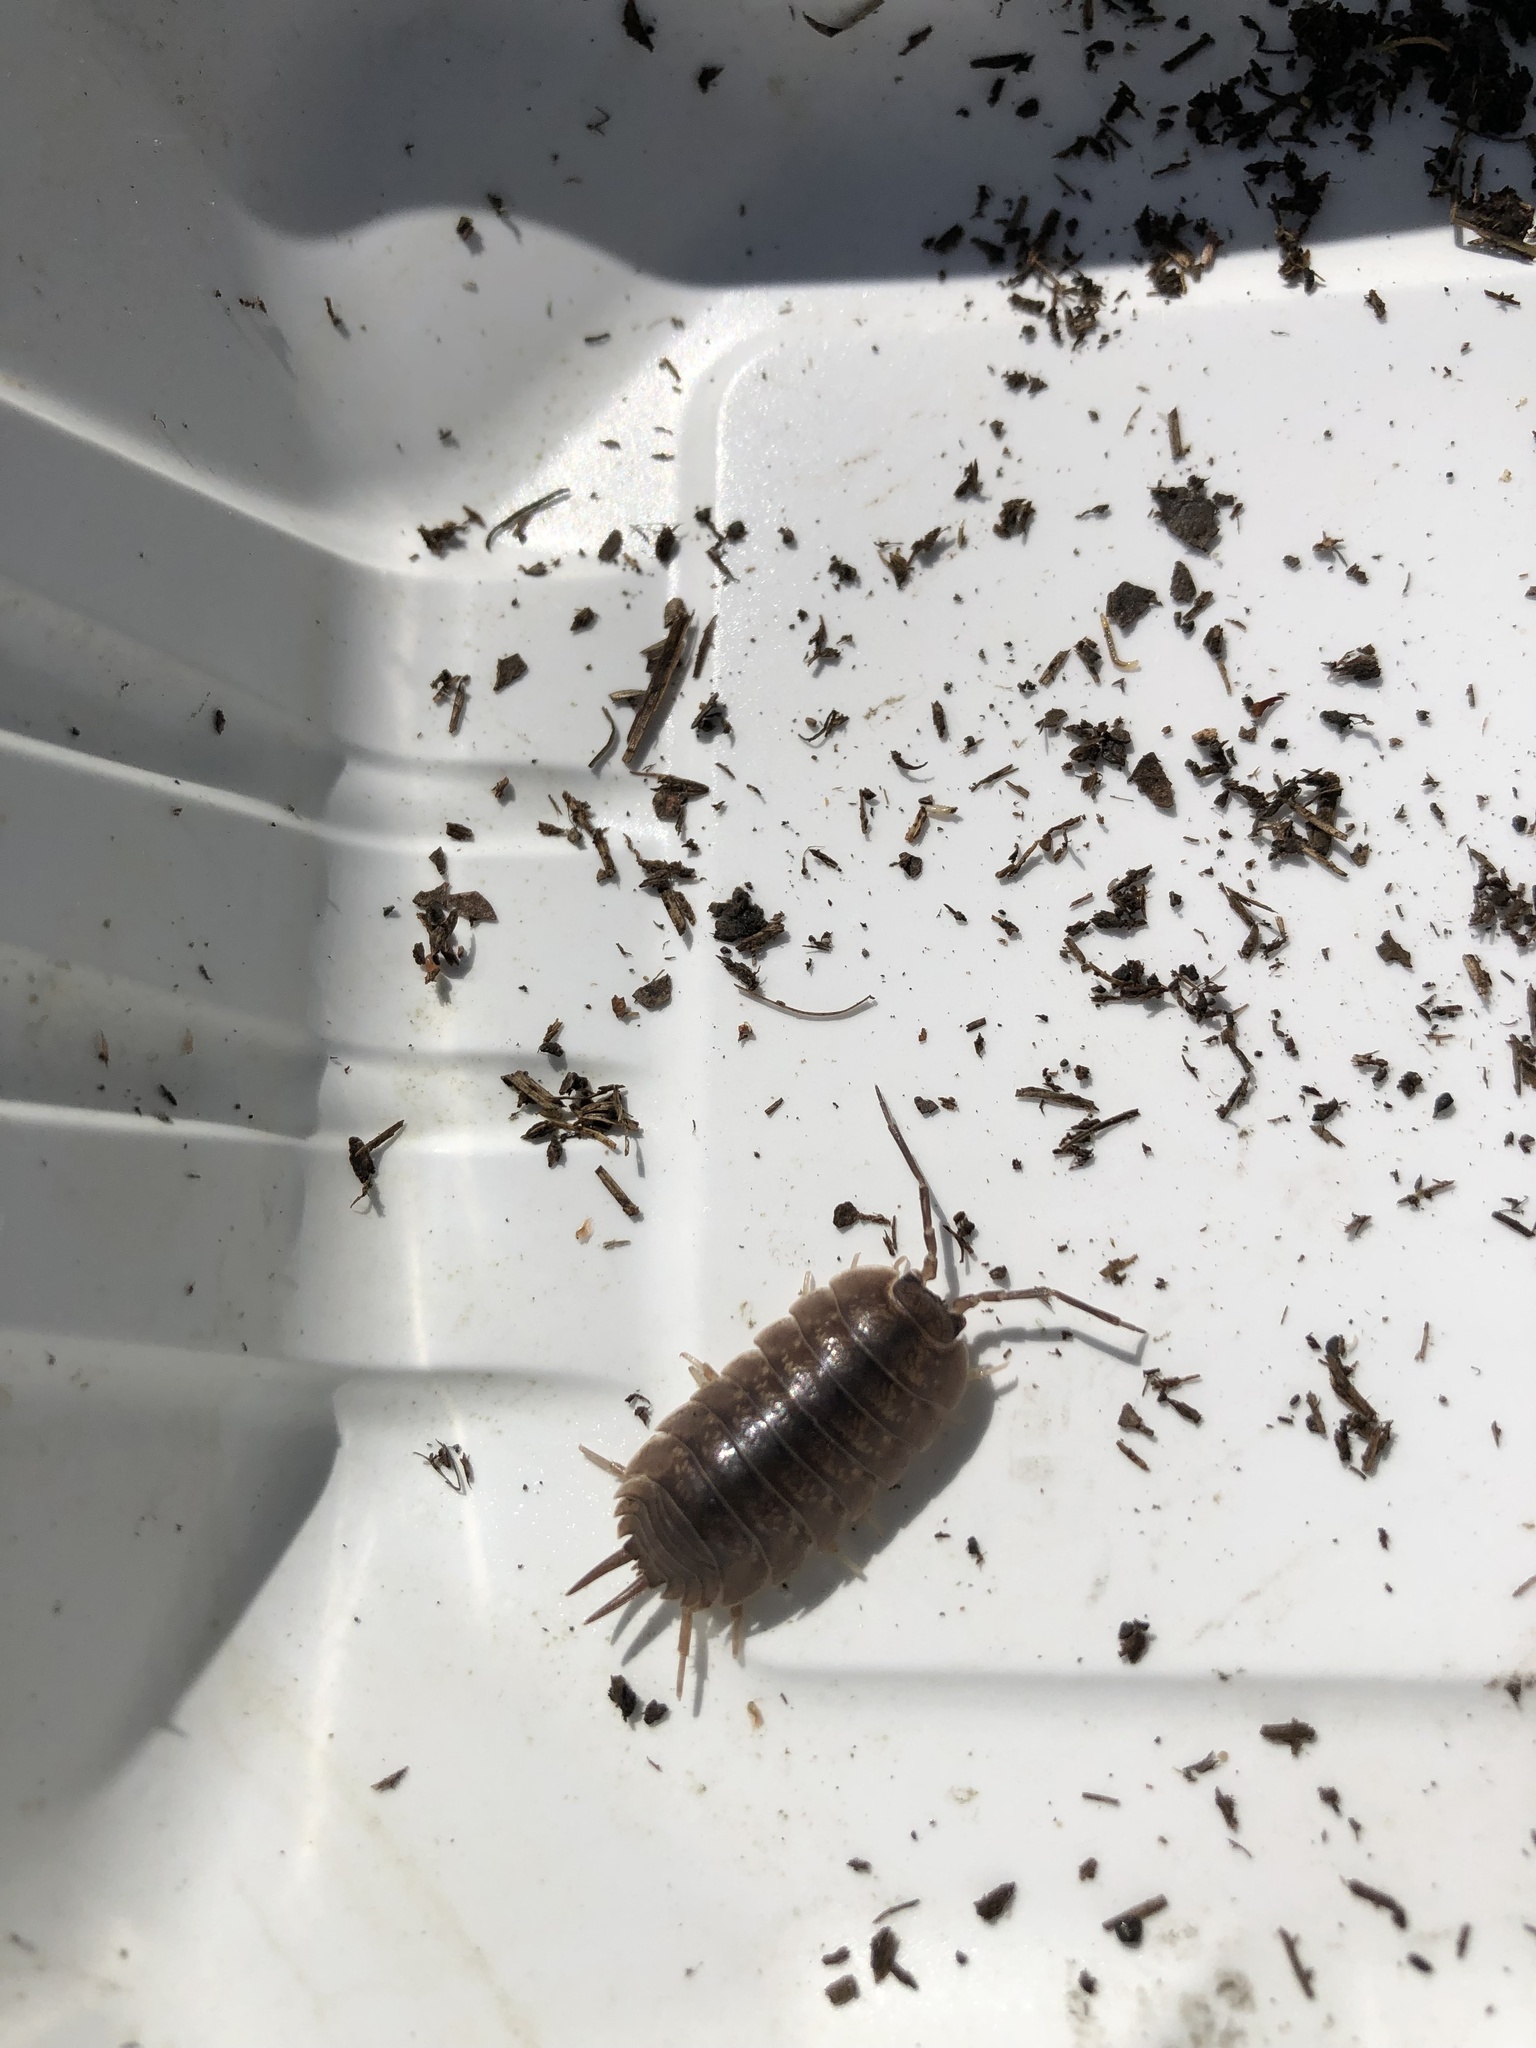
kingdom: Animalia
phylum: Arthropoda
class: Malacostraca
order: Isopoda
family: Porcellionidae
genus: Porcellio
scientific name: Porcellio laevis
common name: Swift woodlouse
